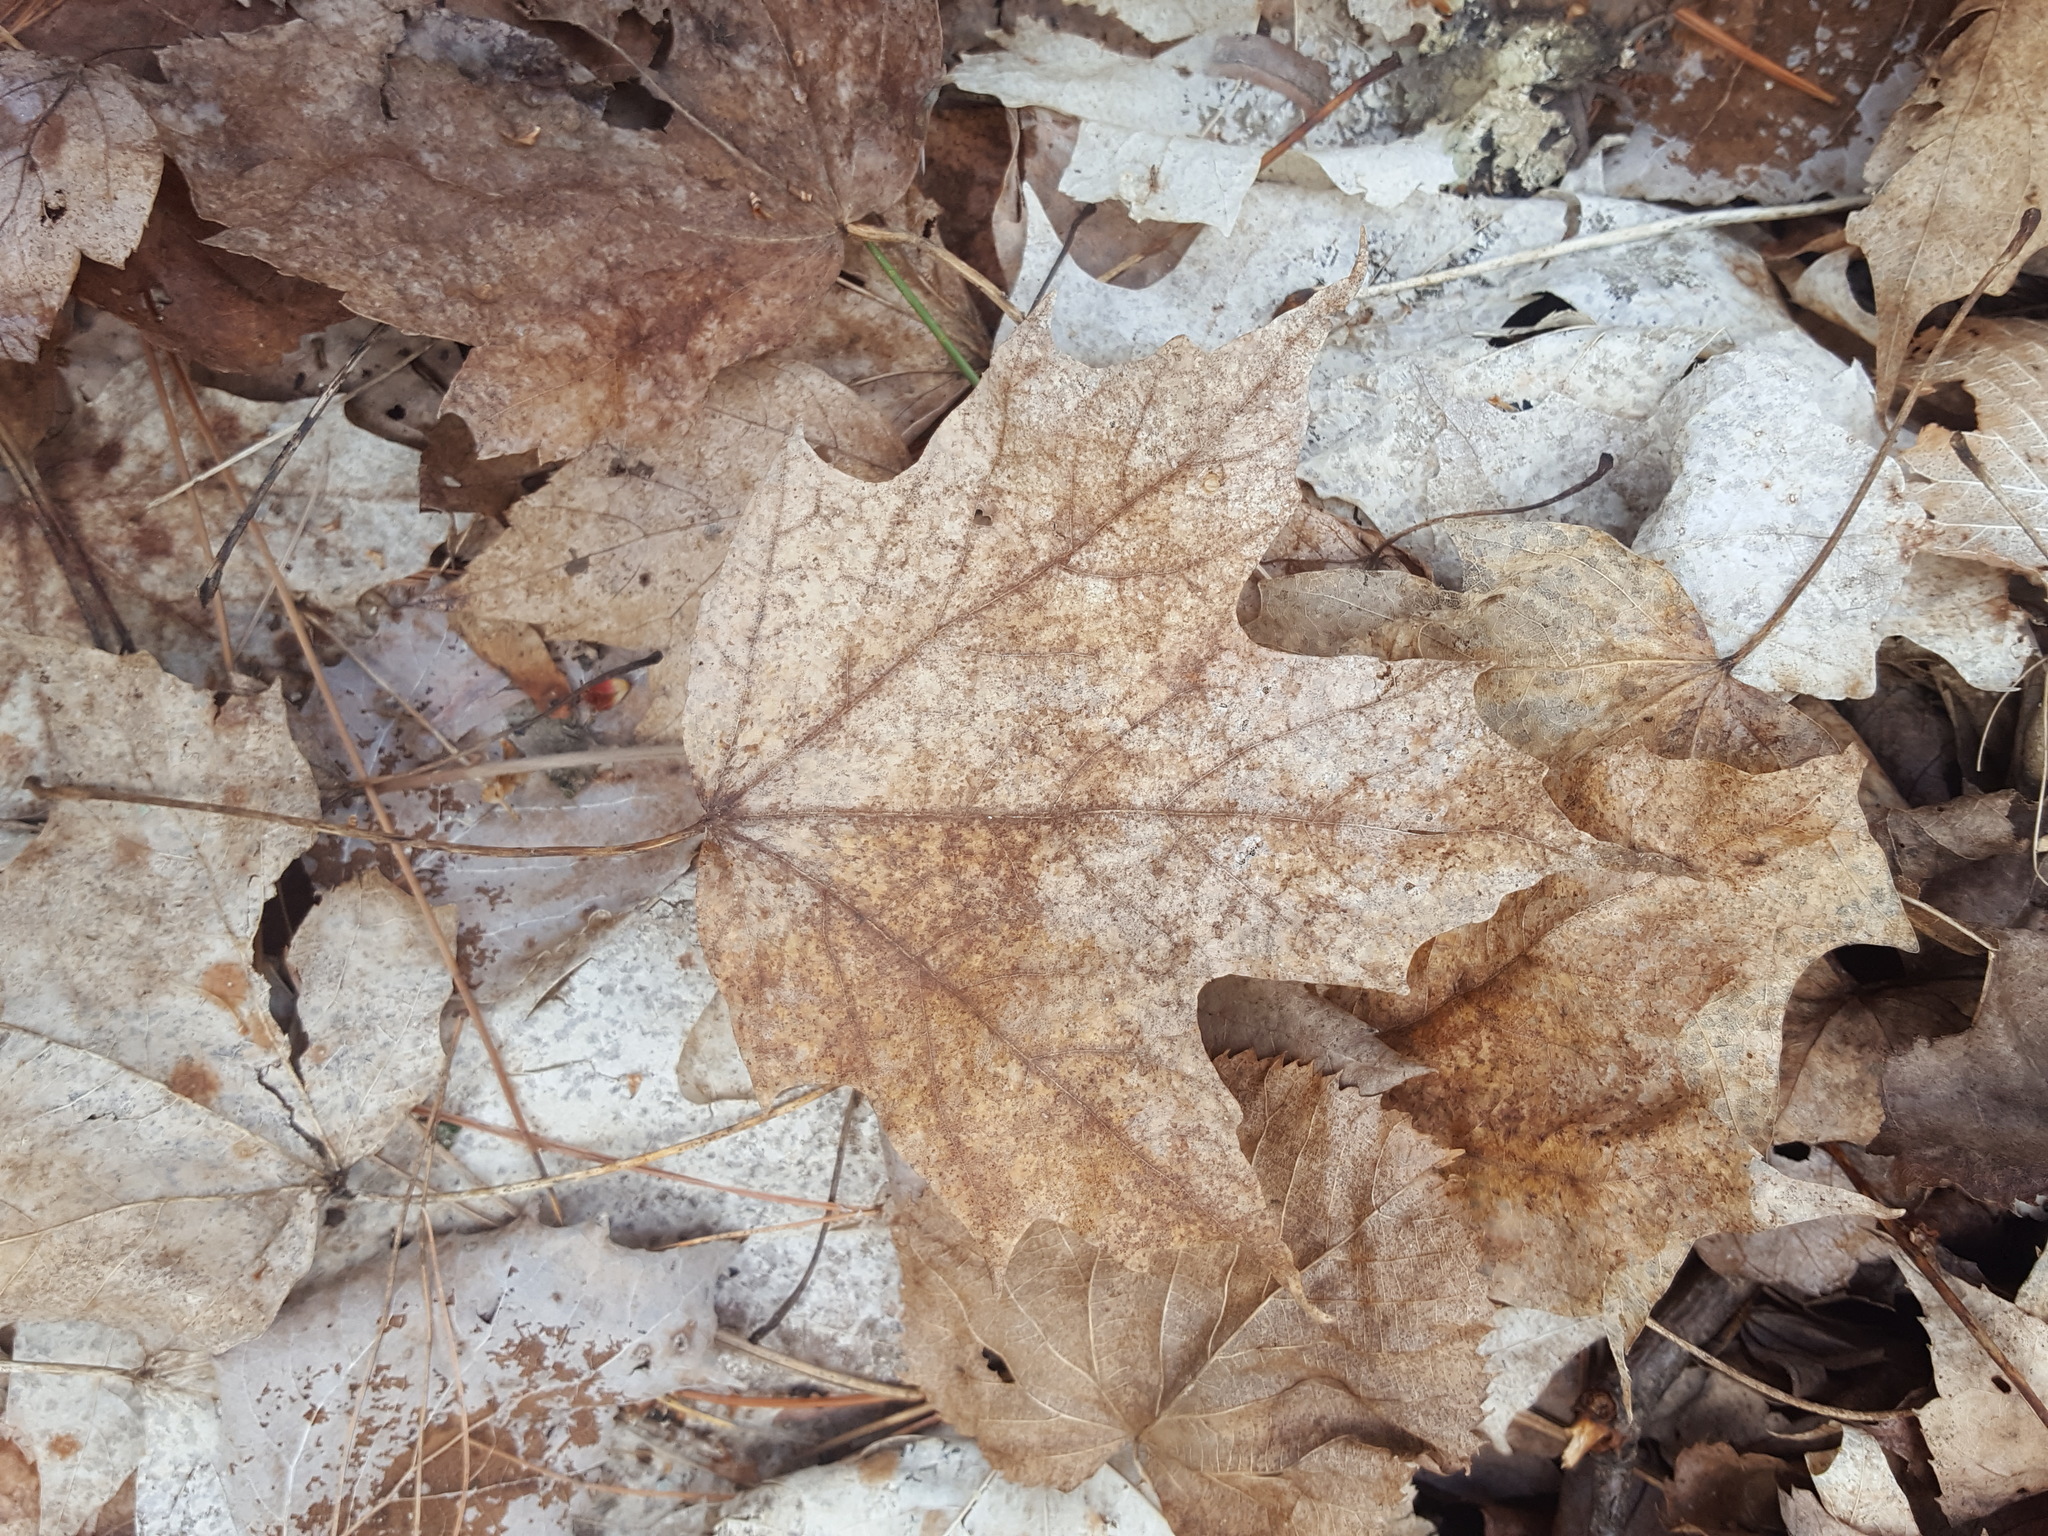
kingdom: Plantae
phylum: Tracheophyta
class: Magnoliopsida
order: Sapindales
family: Sapindaceae
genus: Acer
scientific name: Acer saccharum
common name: Sugar maple
